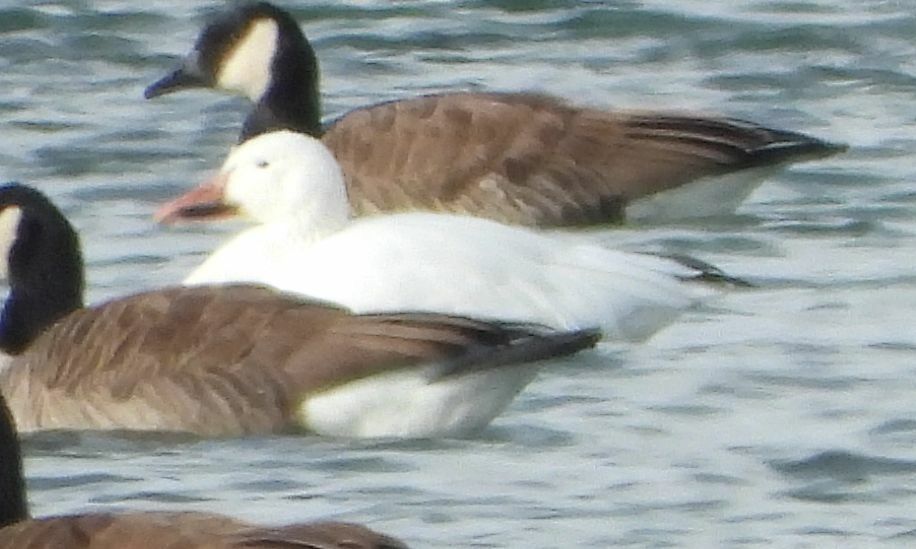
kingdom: Animalia
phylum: Chordata
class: Aves
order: Anseriformes
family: Anatidae
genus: Anser
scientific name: Anser caerulescens
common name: Snow goose
